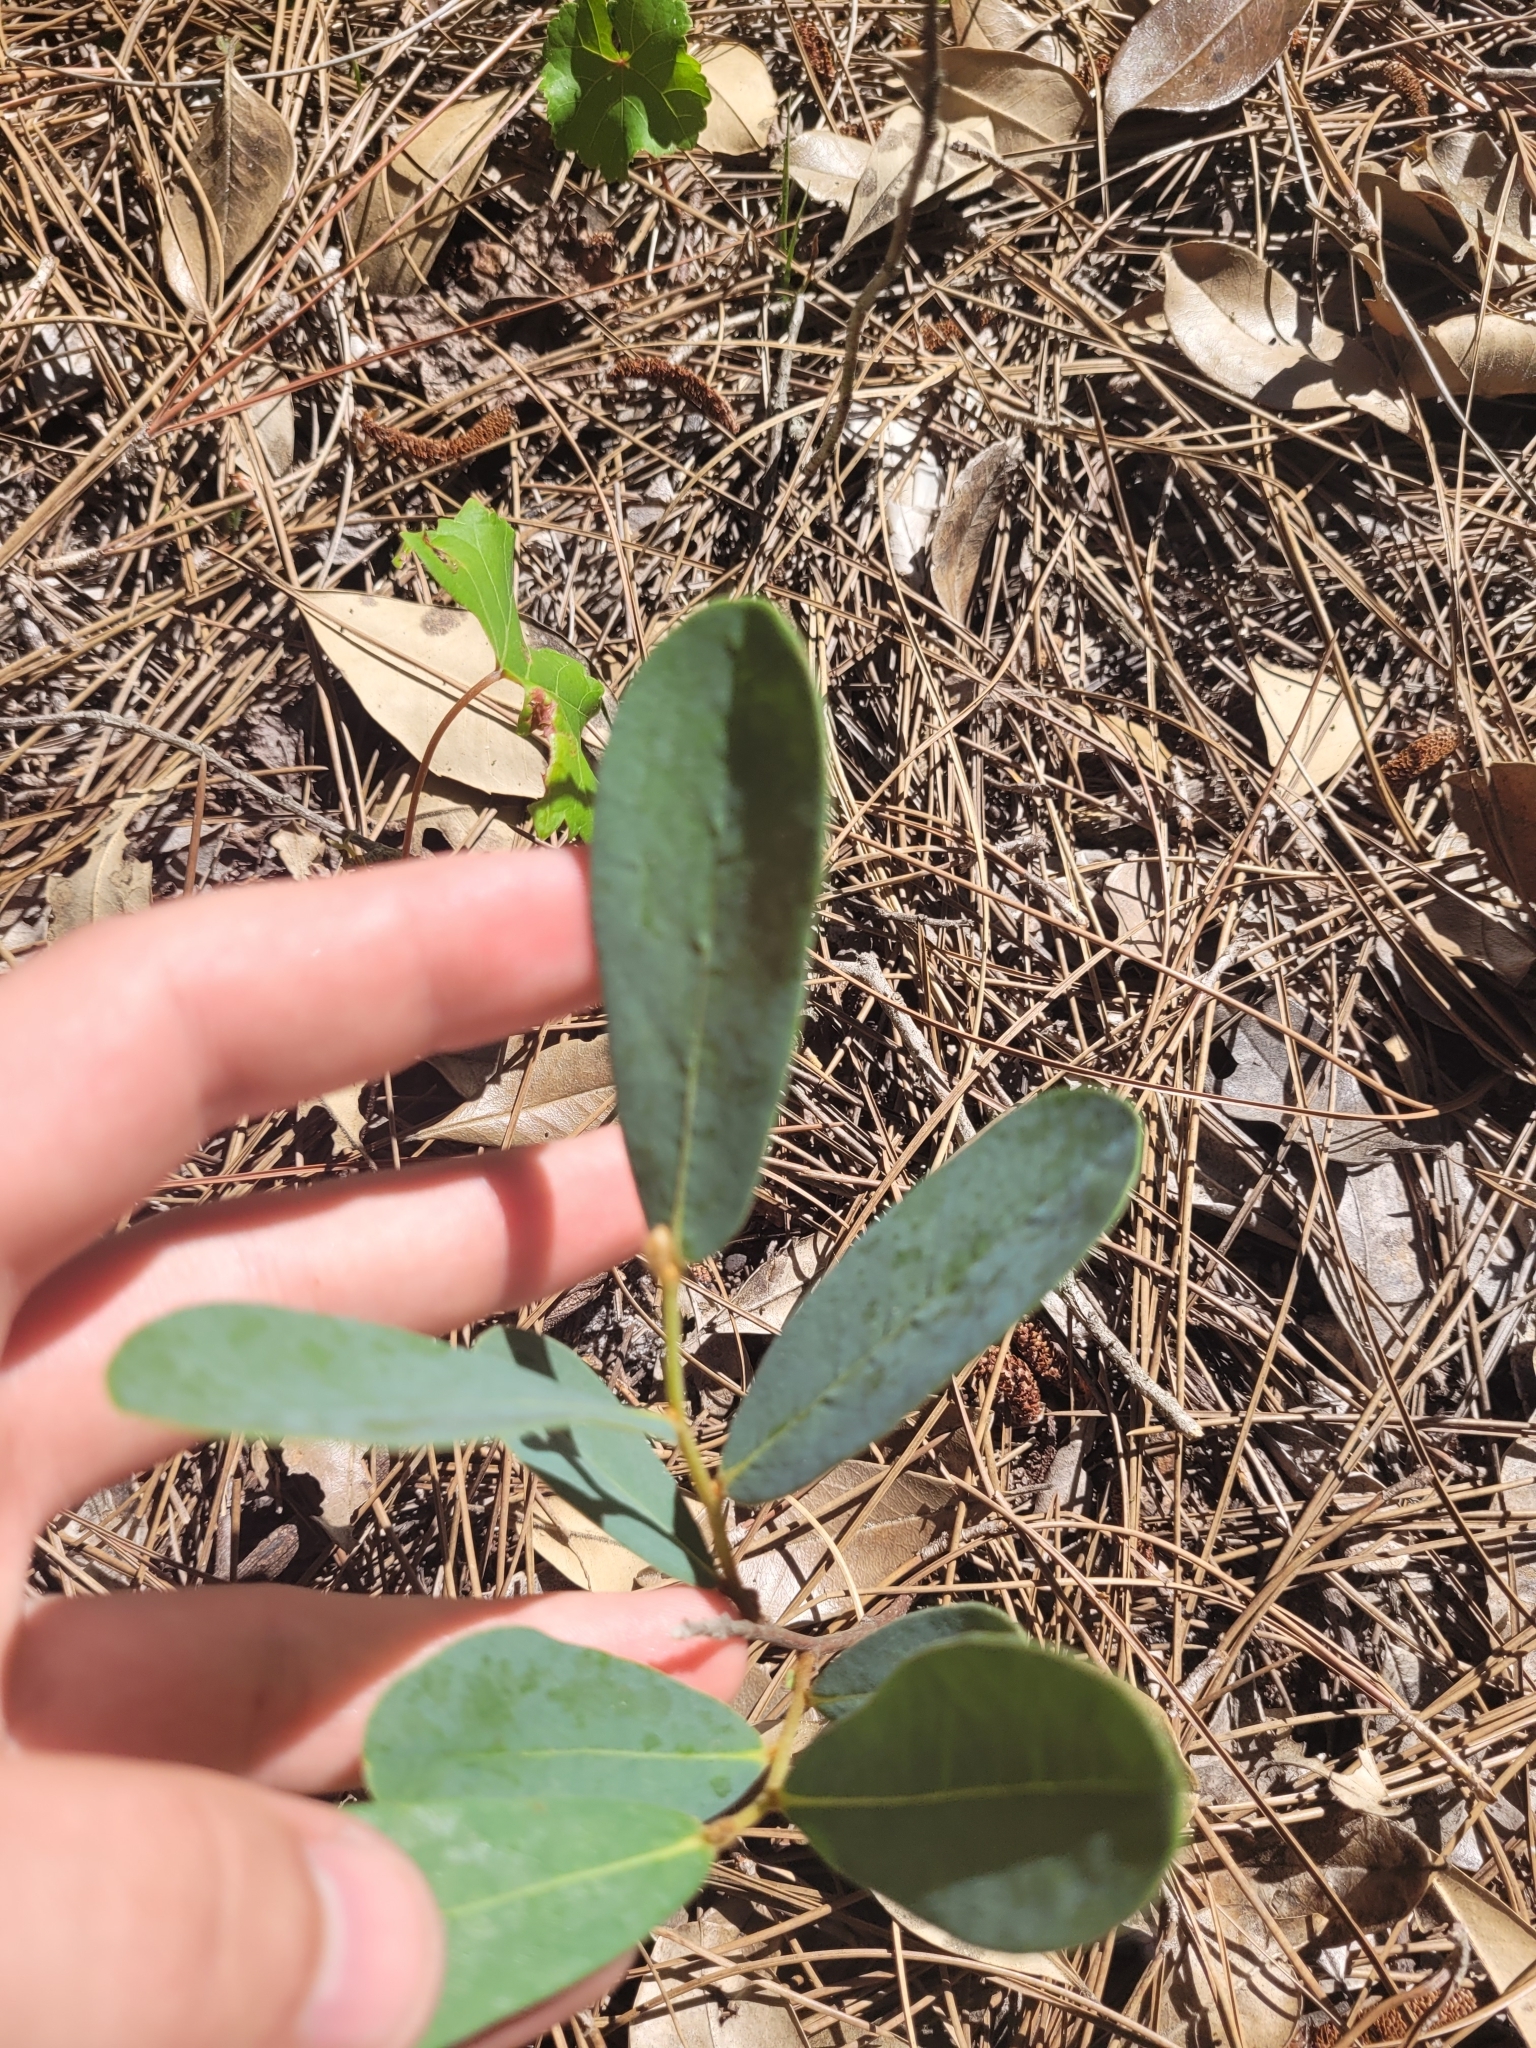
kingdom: Plantae
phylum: Tracheophyta
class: Magnoliopsida
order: Magnoliales
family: Annonaceae
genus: Asimina
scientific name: Asimina reticulata
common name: Flag pawpaw
